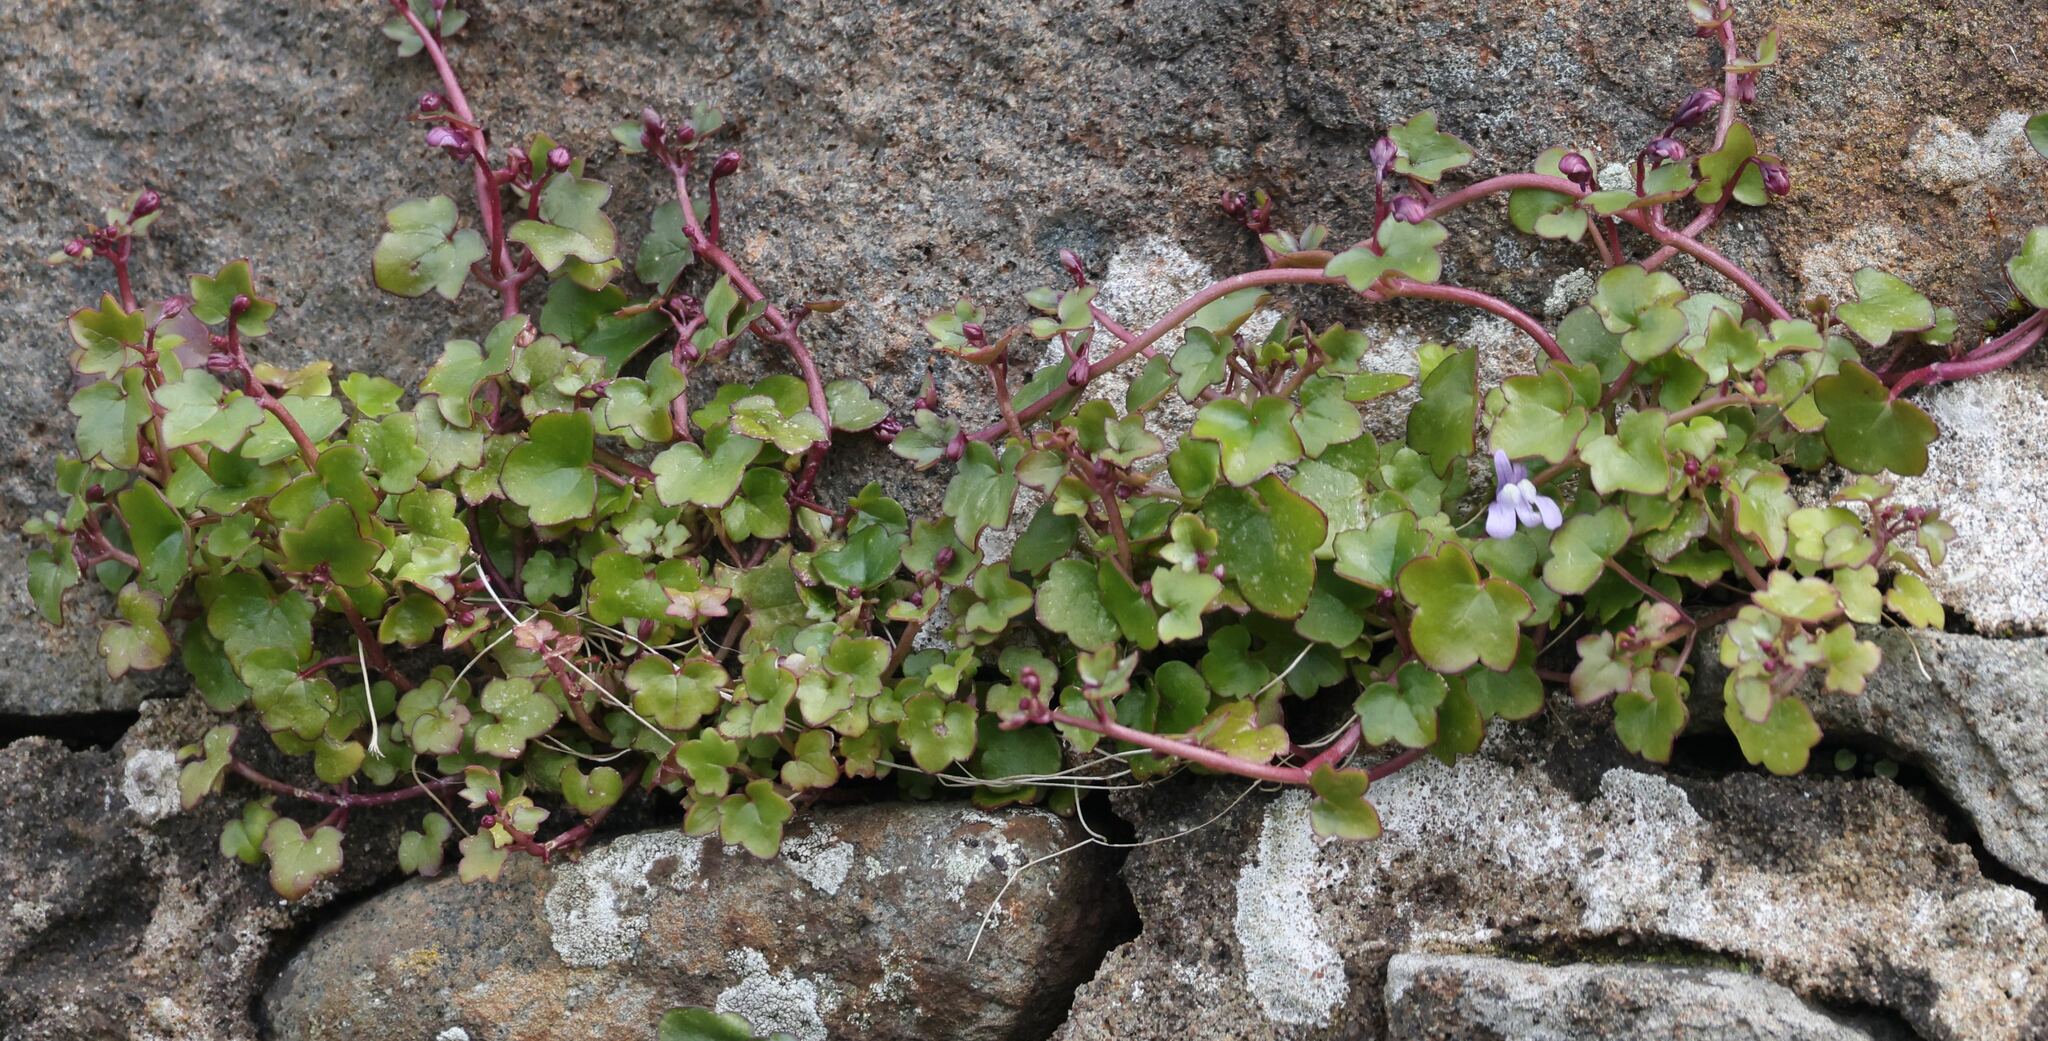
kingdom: Plantae
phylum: Tracheophyta
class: Magnoliopsida
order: Lamiales
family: Plantaginaceae
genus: Cymbalaria
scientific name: Cymbalaria muralis
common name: Ivy-leaved toadflax
